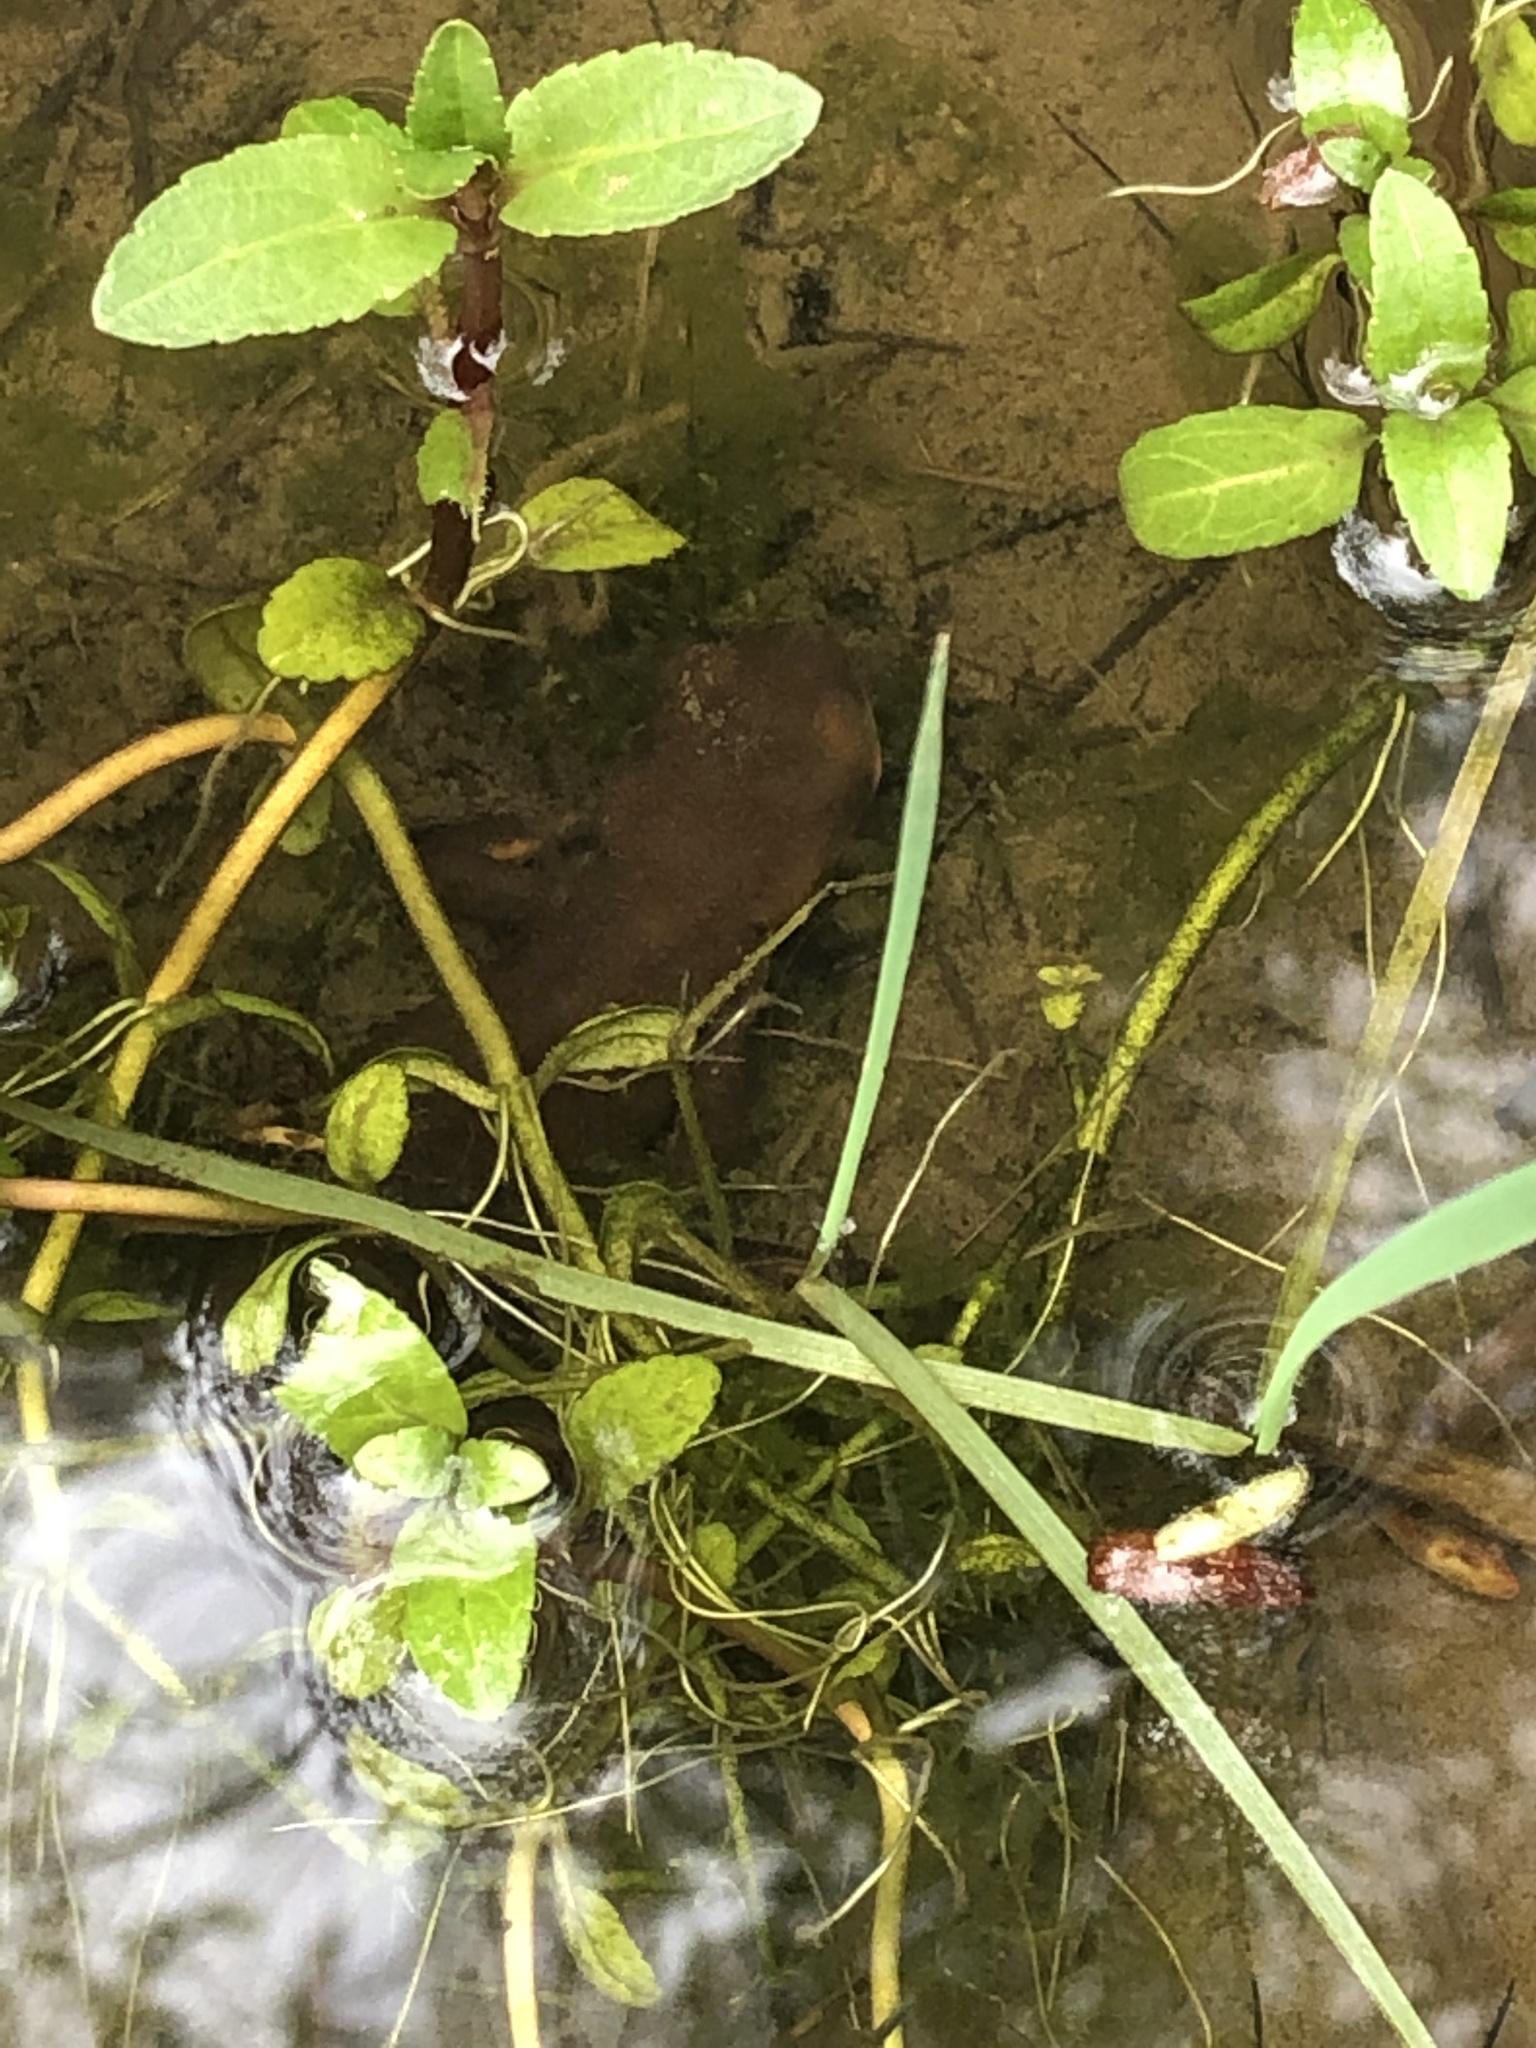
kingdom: Animalia
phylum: Chordata
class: Amphibia
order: Caudata
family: Salamandridae
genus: Taricha
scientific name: Taricha granulosa
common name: Roughskin newt
